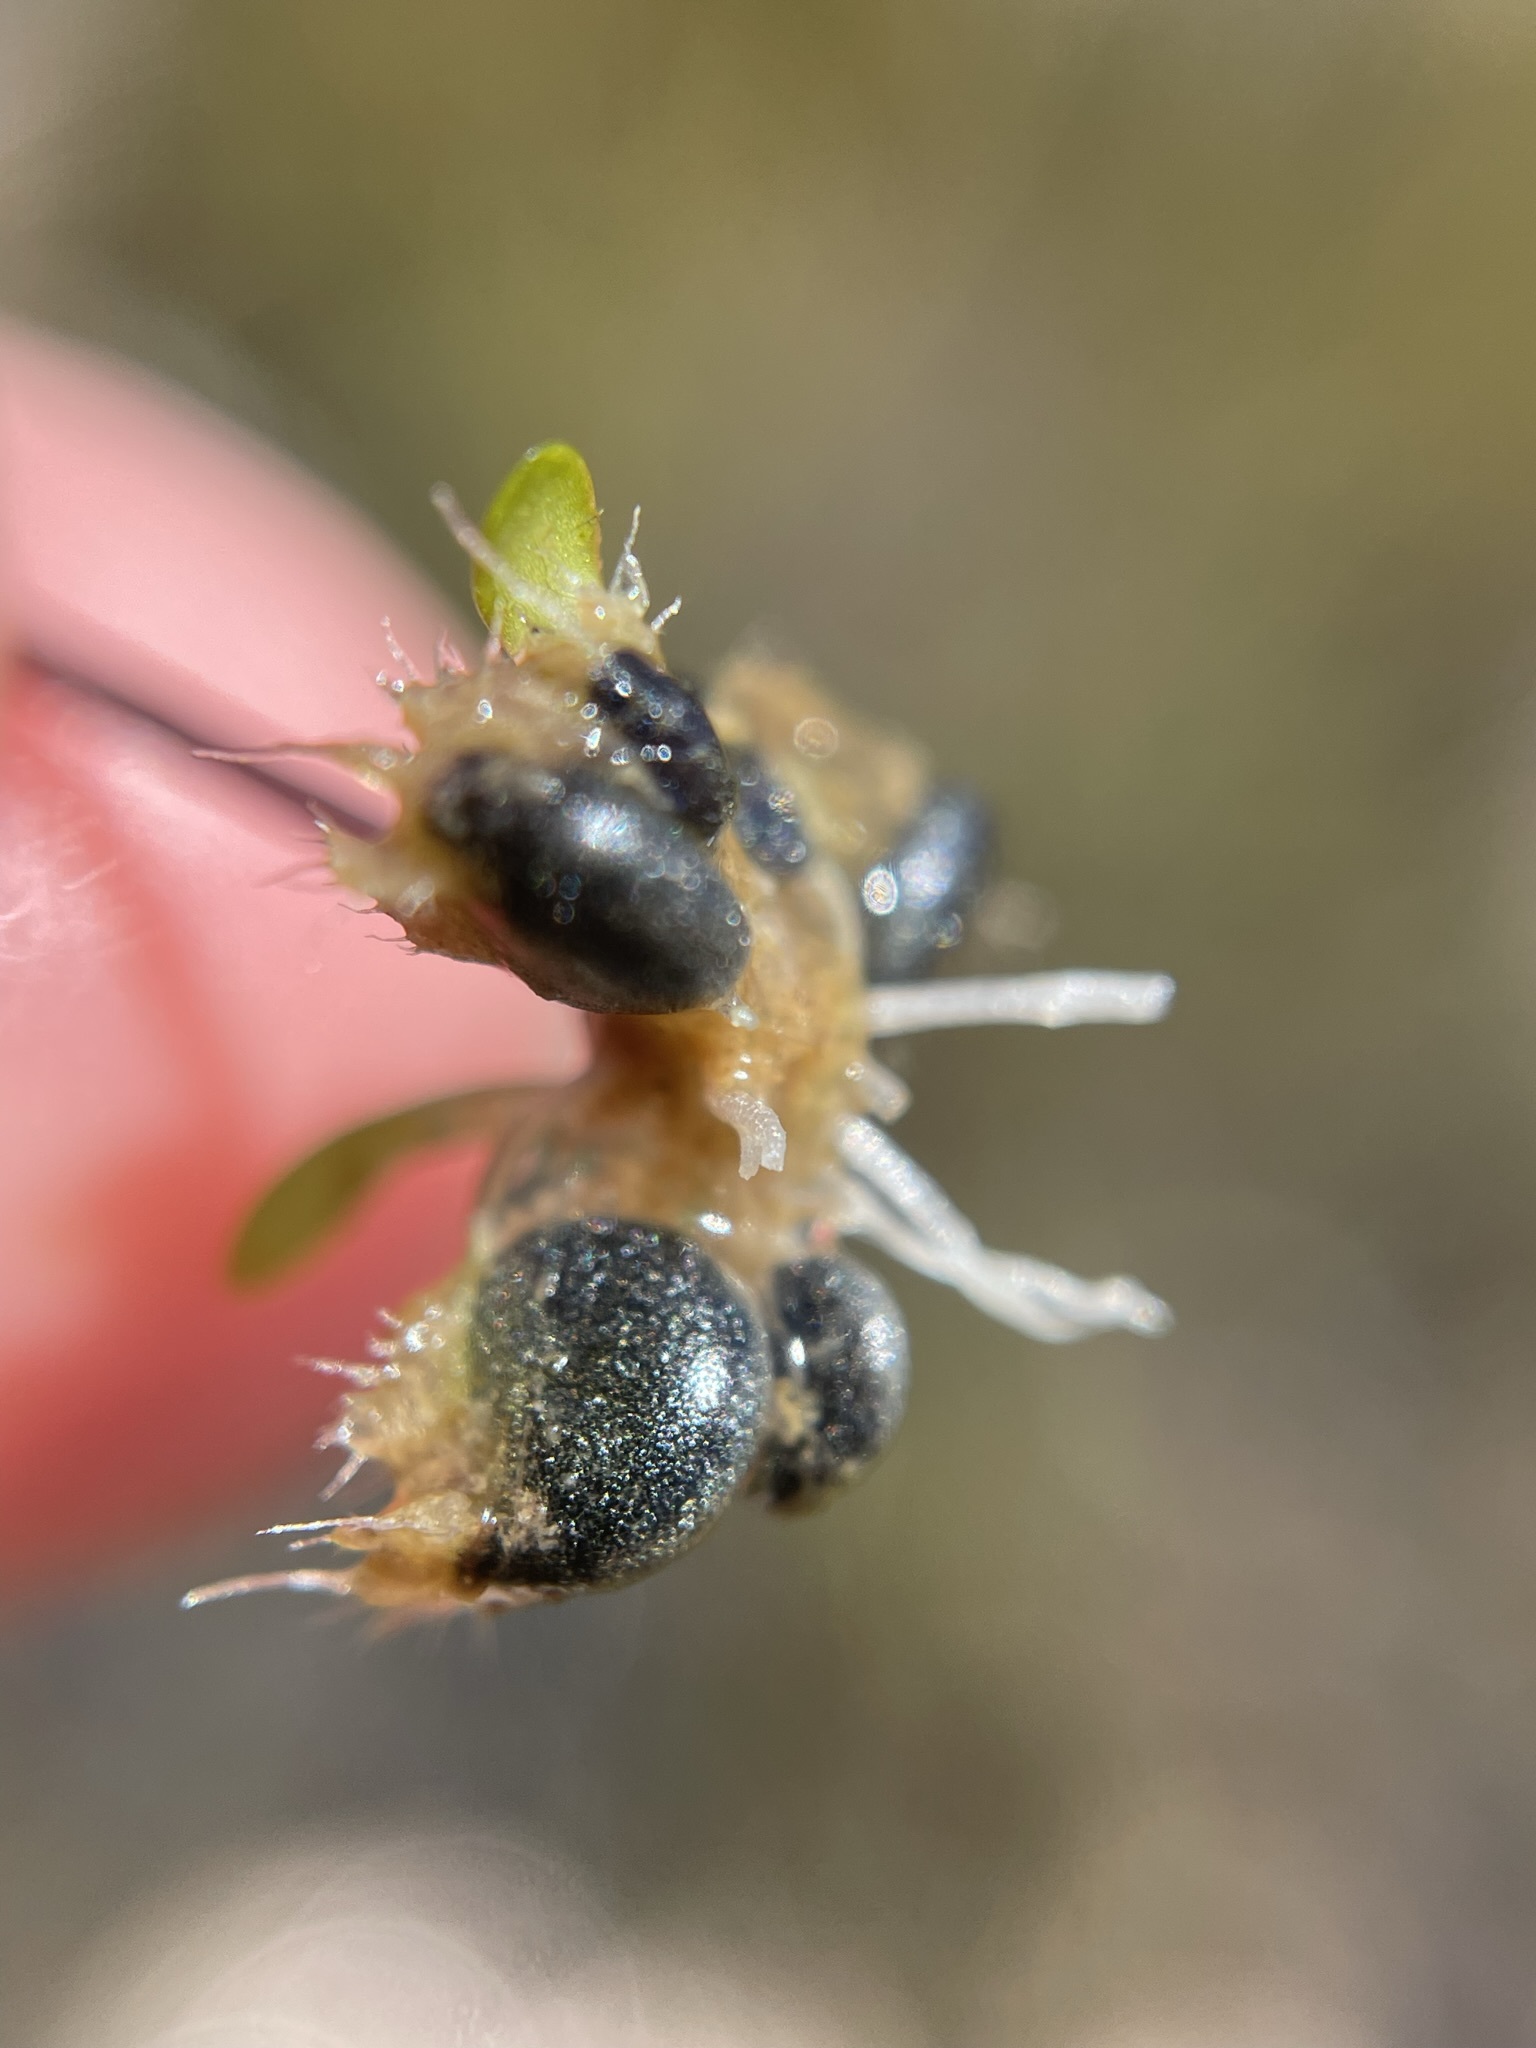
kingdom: Plantae
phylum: Tracheophyta
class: Magnoliopsida
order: Lamiales
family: Lentibulariaceae
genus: Utricularia
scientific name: Utricularia dichotoma
